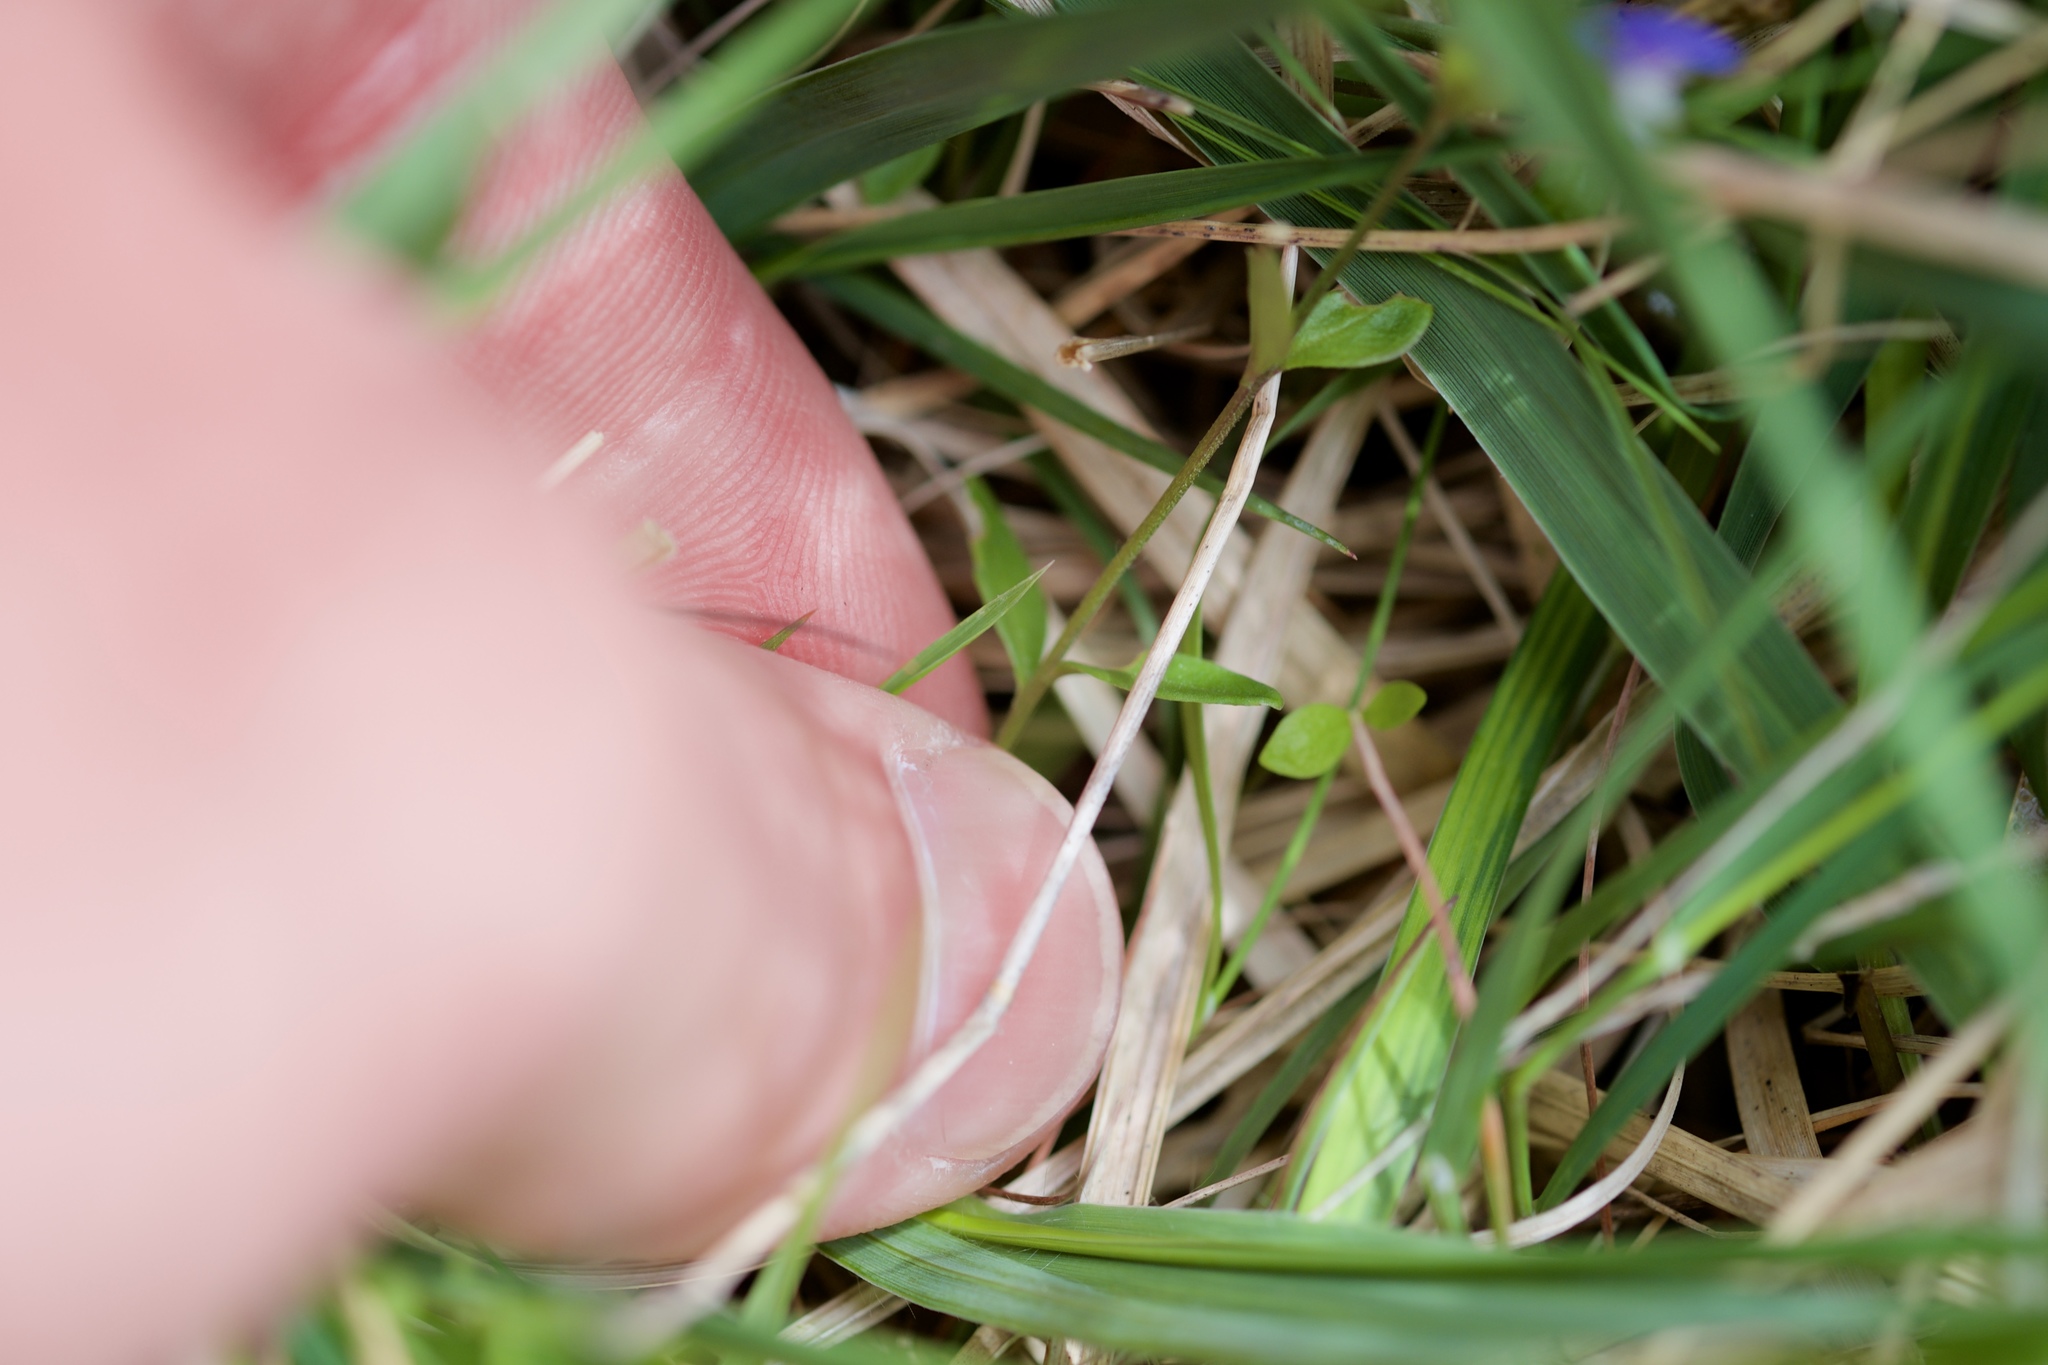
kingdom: Plantae
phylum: Tracheophyta
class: Magnoliopsida
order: Fabales
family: Polygalaceae
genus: Polygala
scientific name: Polygala serpyllifolia
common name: Heath milkwort
